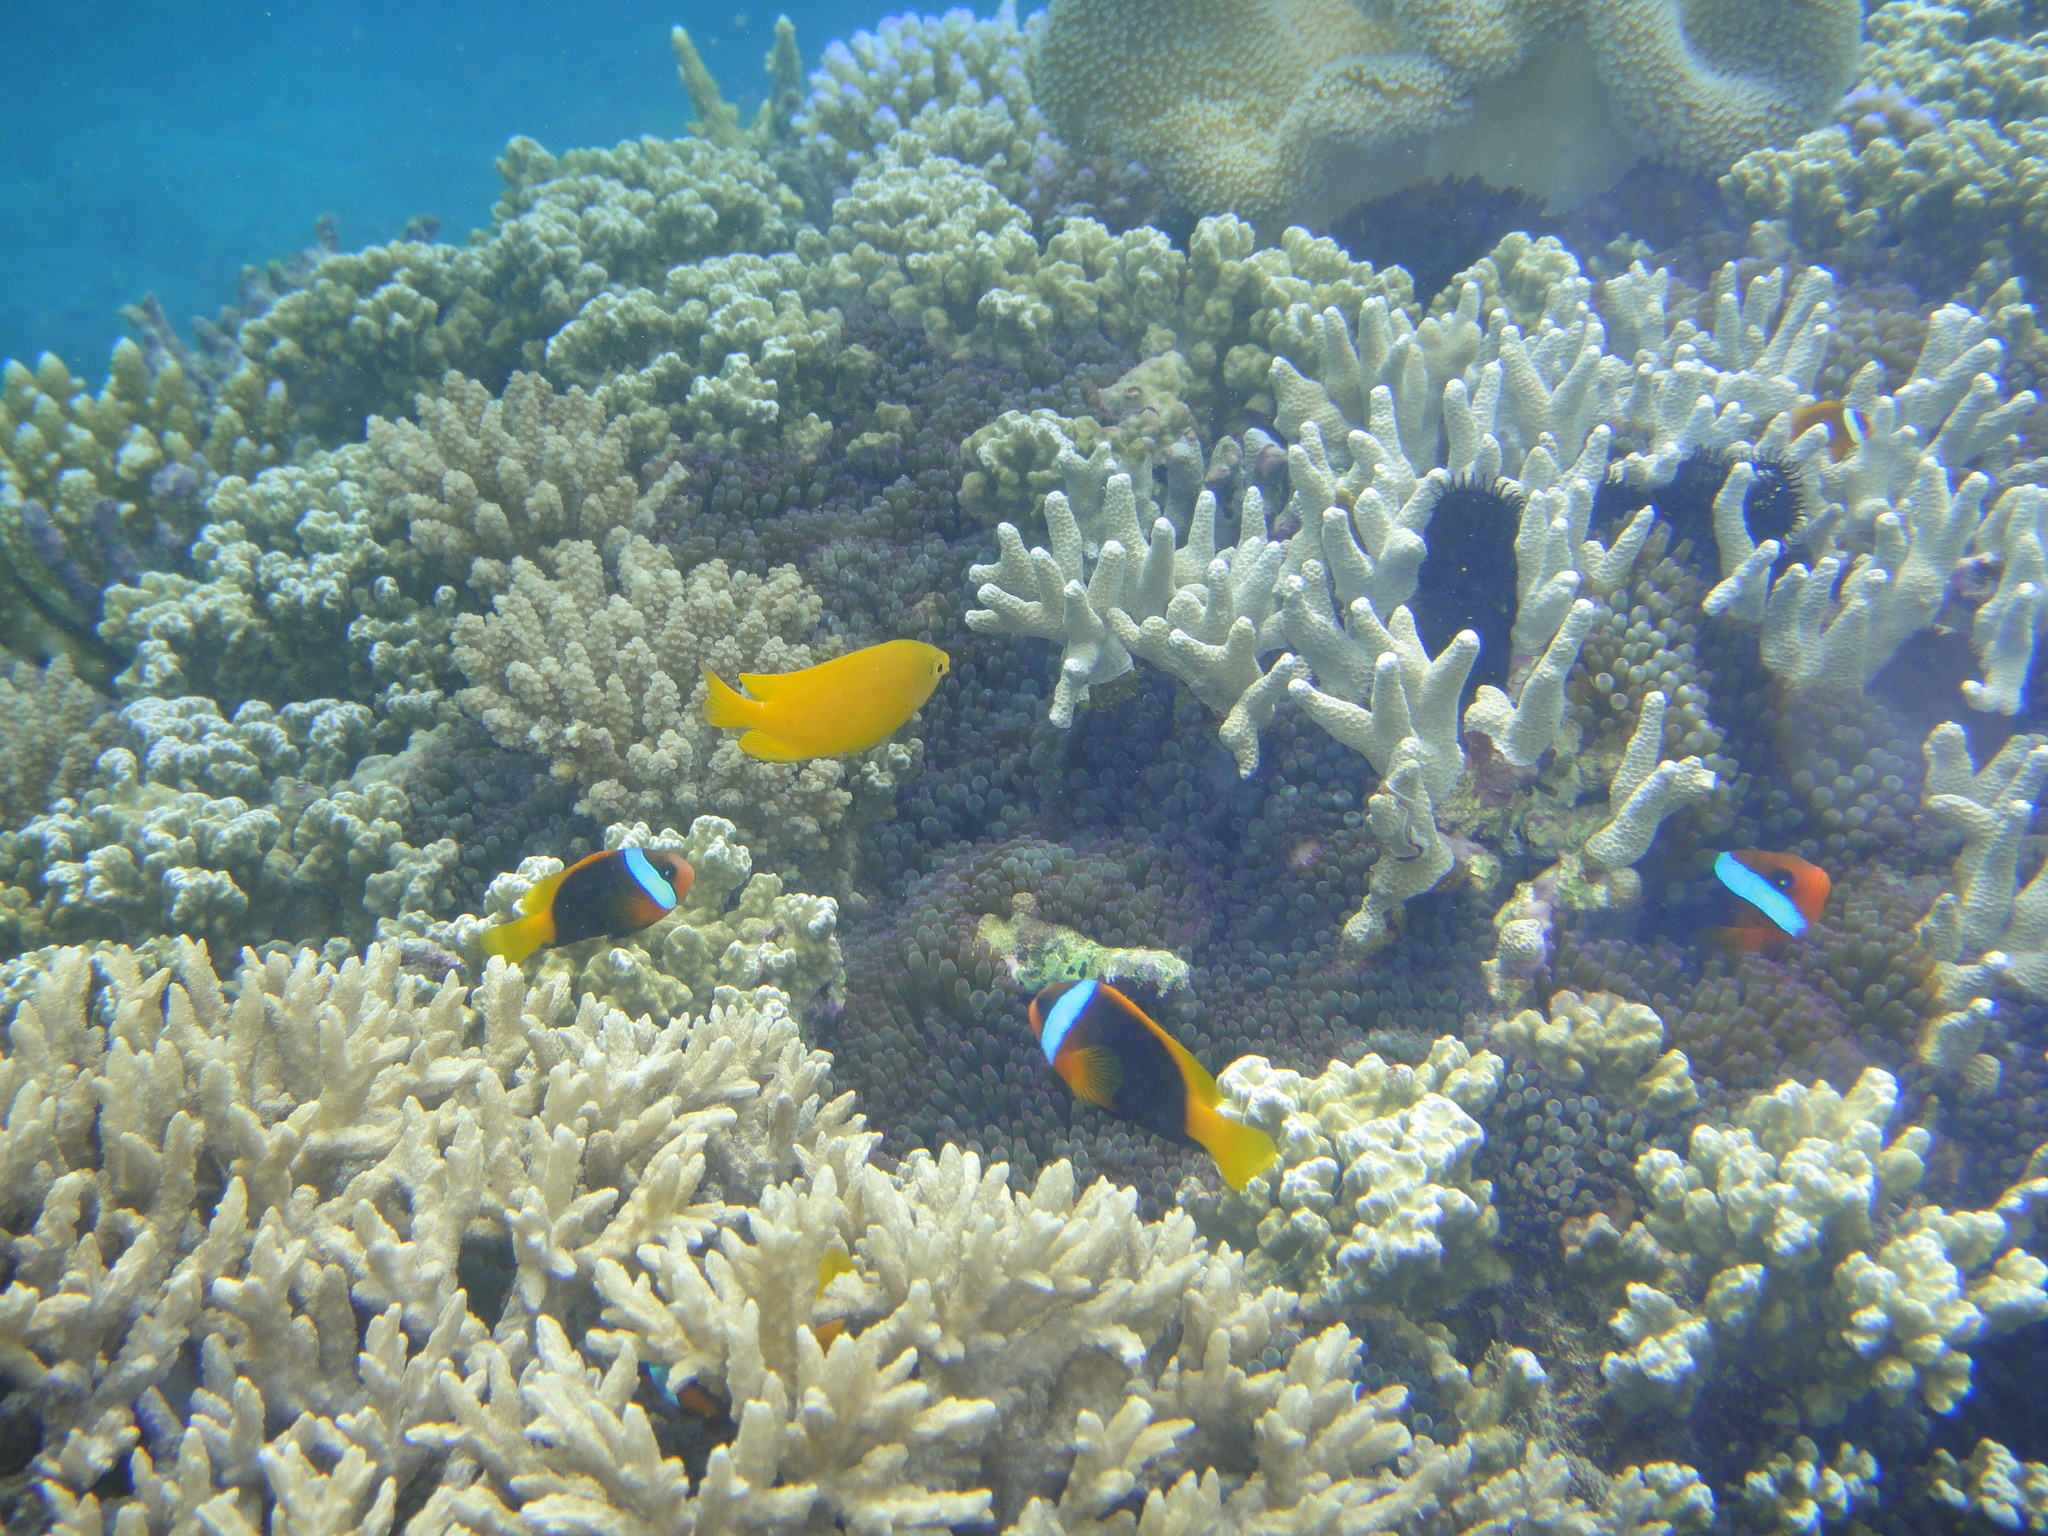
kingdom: Animalia
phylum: Chordata
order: Perciformes
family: Pomacentridae
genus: Amphiprion
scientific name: Amphiprion melanopus
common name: Black anemonefish
